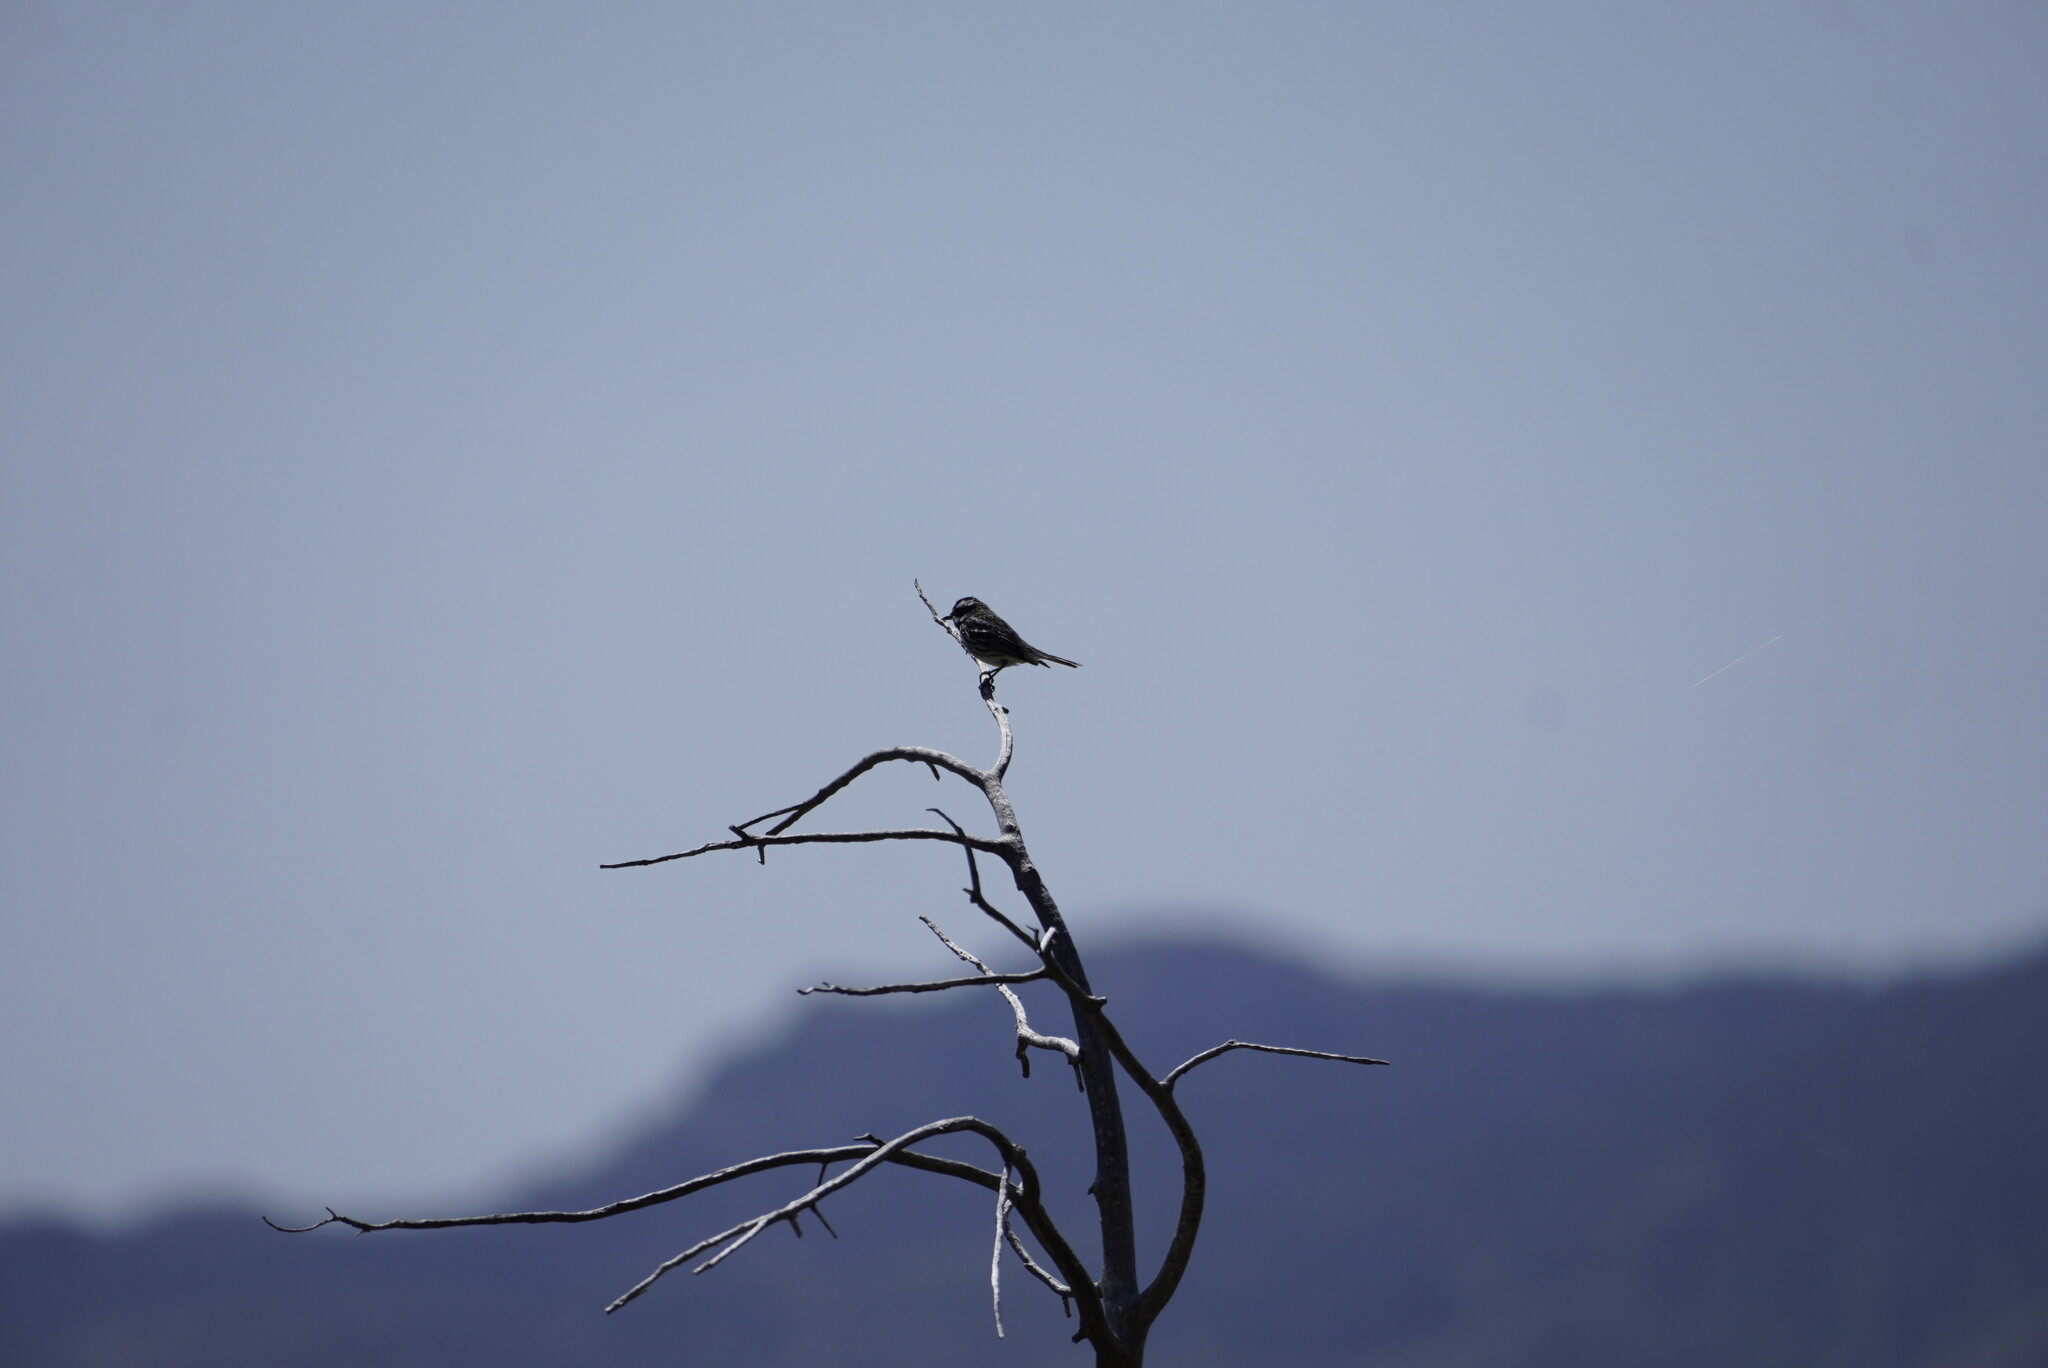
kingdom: Animalia
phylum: Chordata
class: Aves
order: Passeriformes
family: Parulidae
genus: Setophaga
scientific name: Setophaga nigrescens
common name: Black-throated gray warbler
